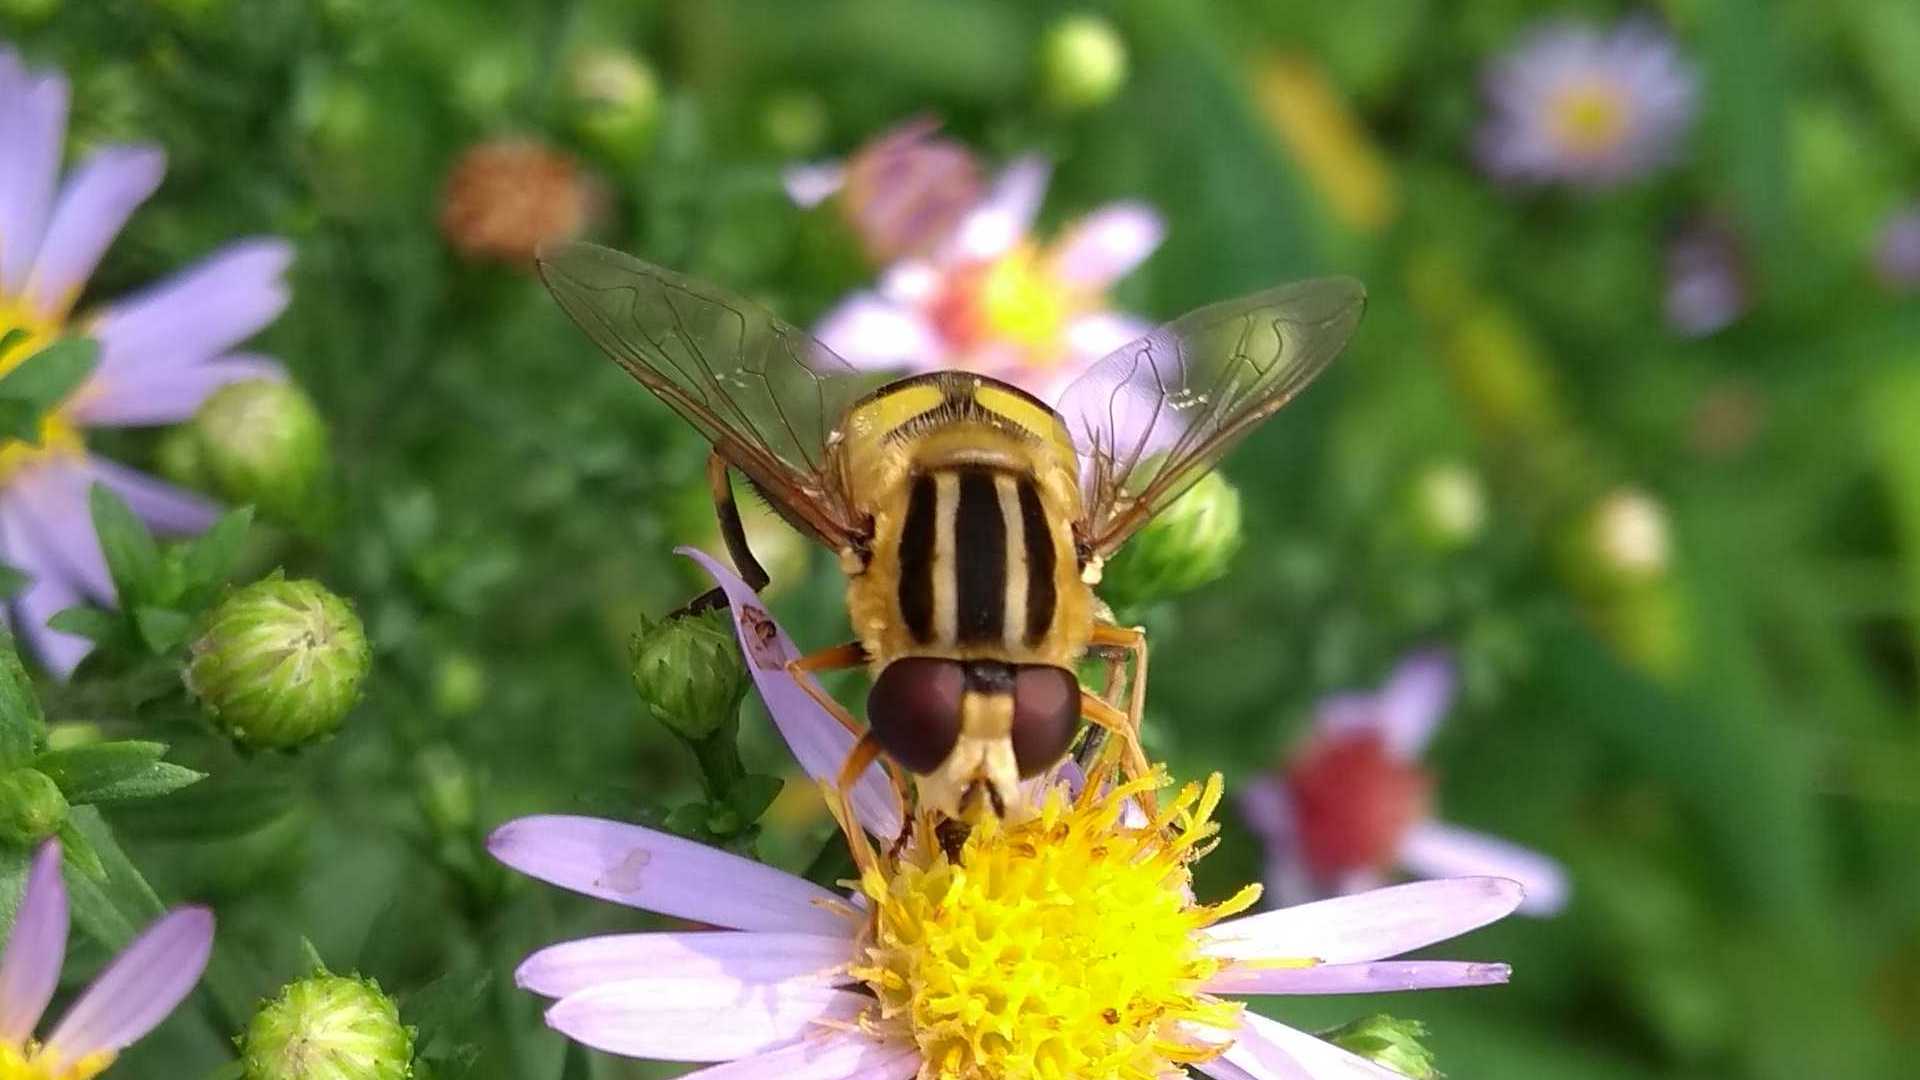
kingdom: Animalia
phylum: Arthropoda
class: Insecta
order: Diptera
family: Syrphidae
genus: Helophilus
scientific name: Helophilus trivittatus
